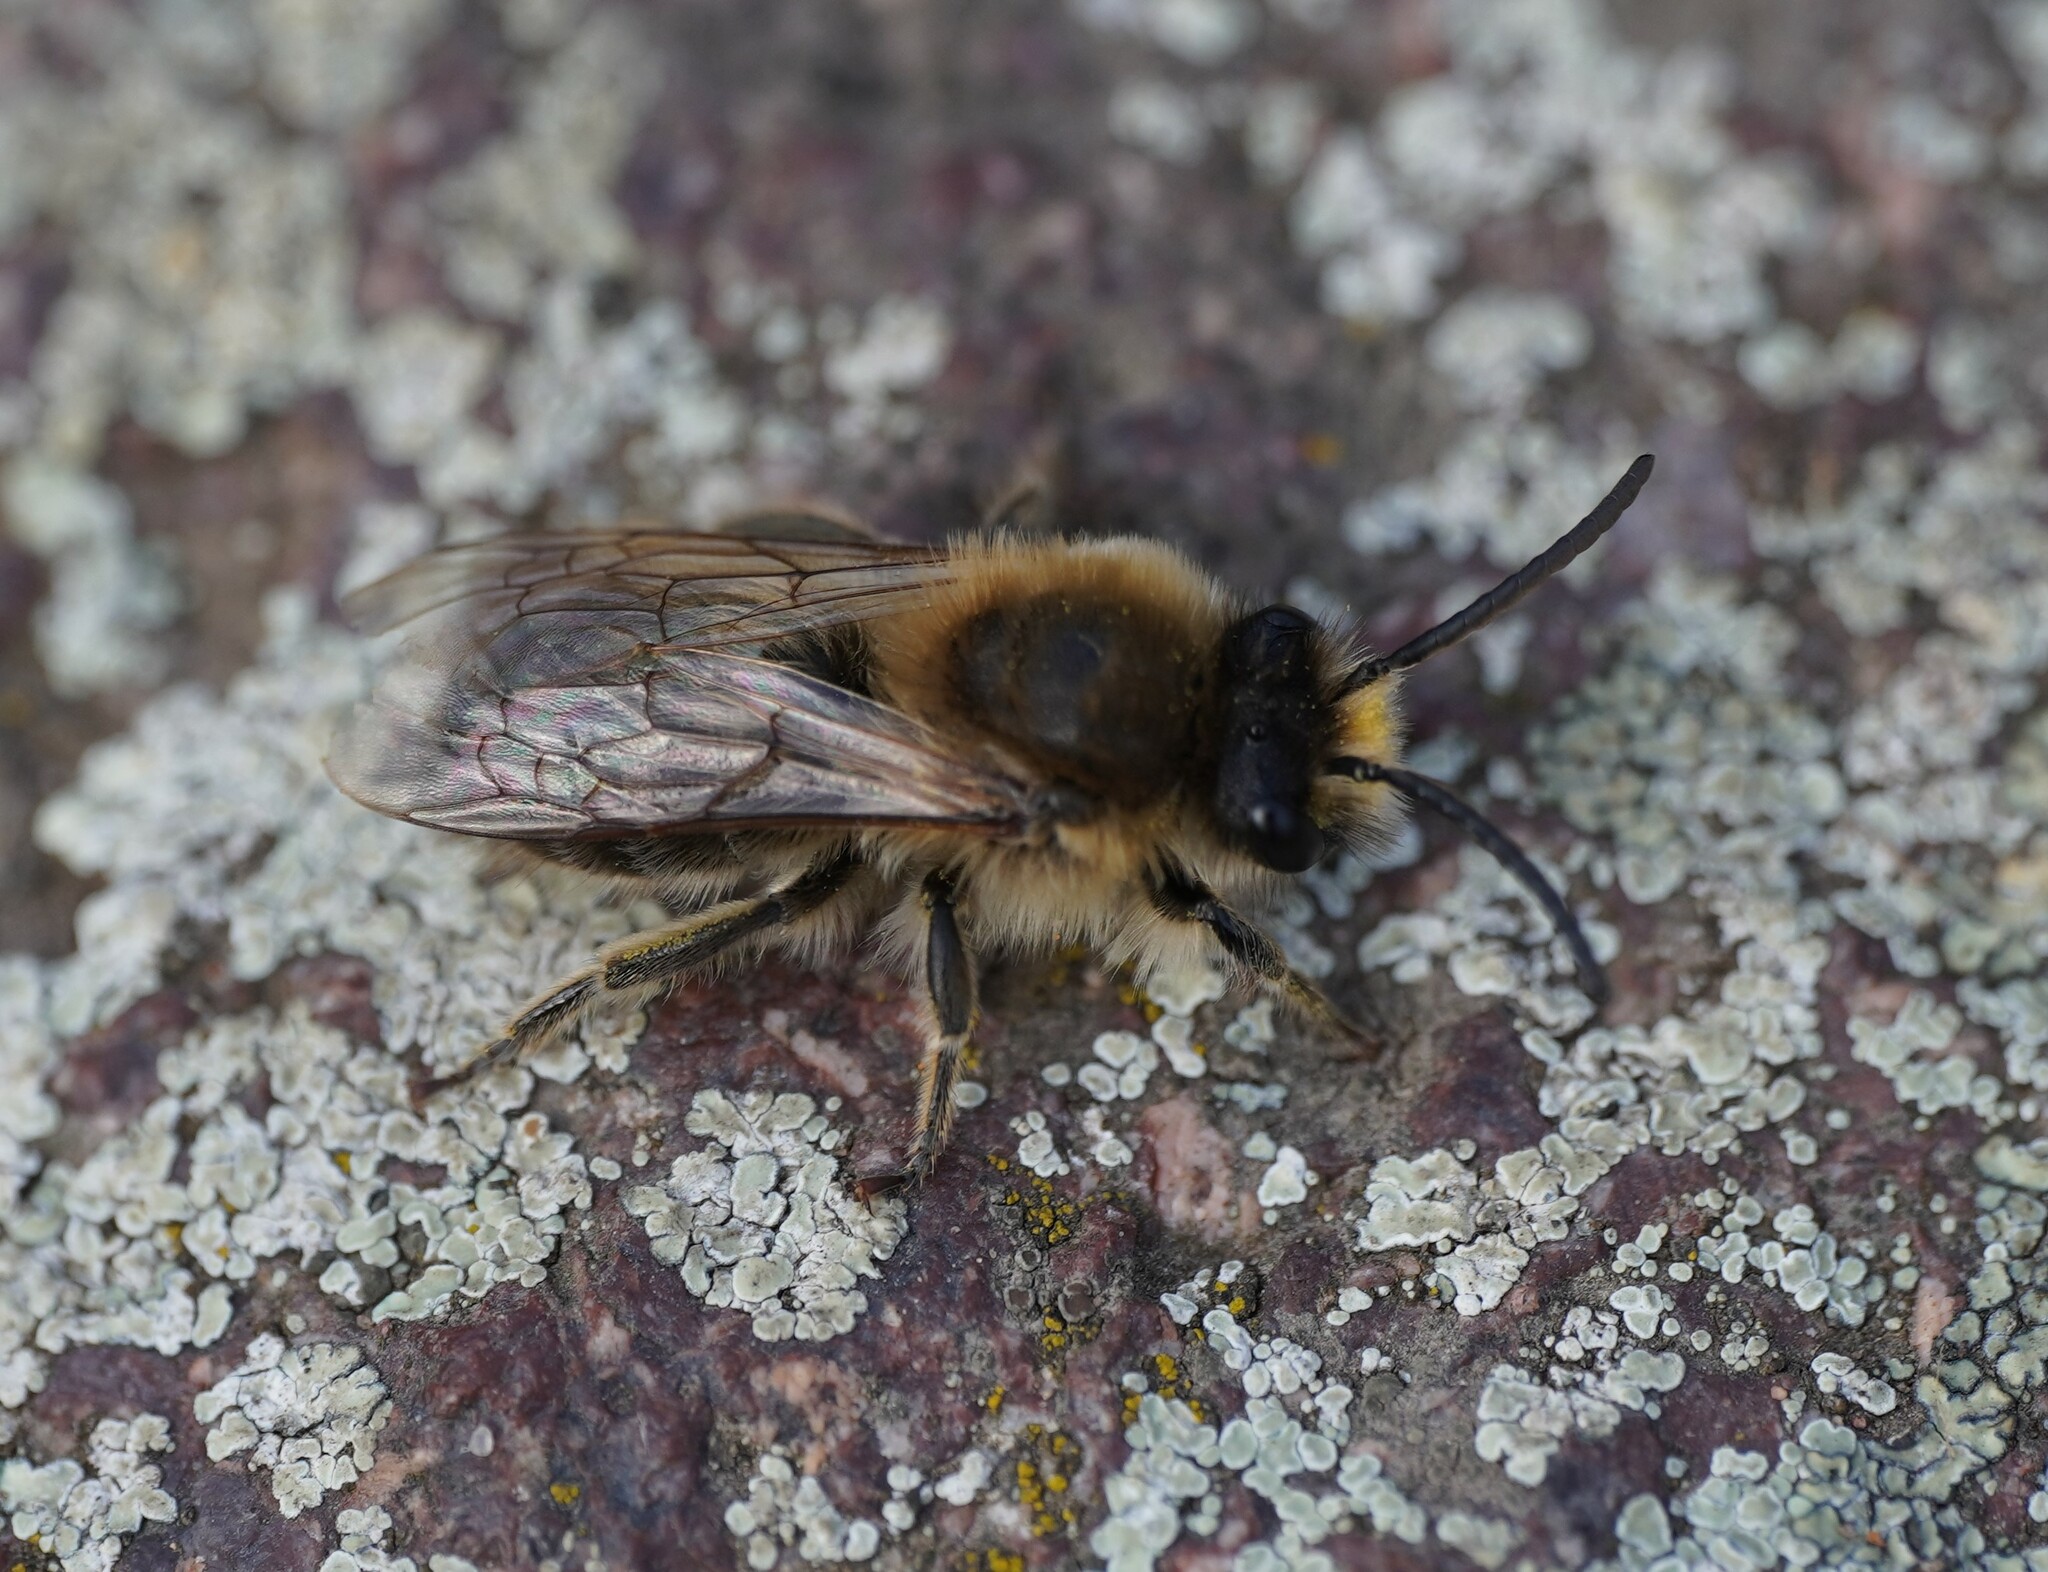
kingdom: Animalia
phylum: Arthropoda
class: Insecta
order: Hymenoptera
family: Colletidae
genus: Colletes
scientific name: Colletes cunicularius
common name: Early colletes
